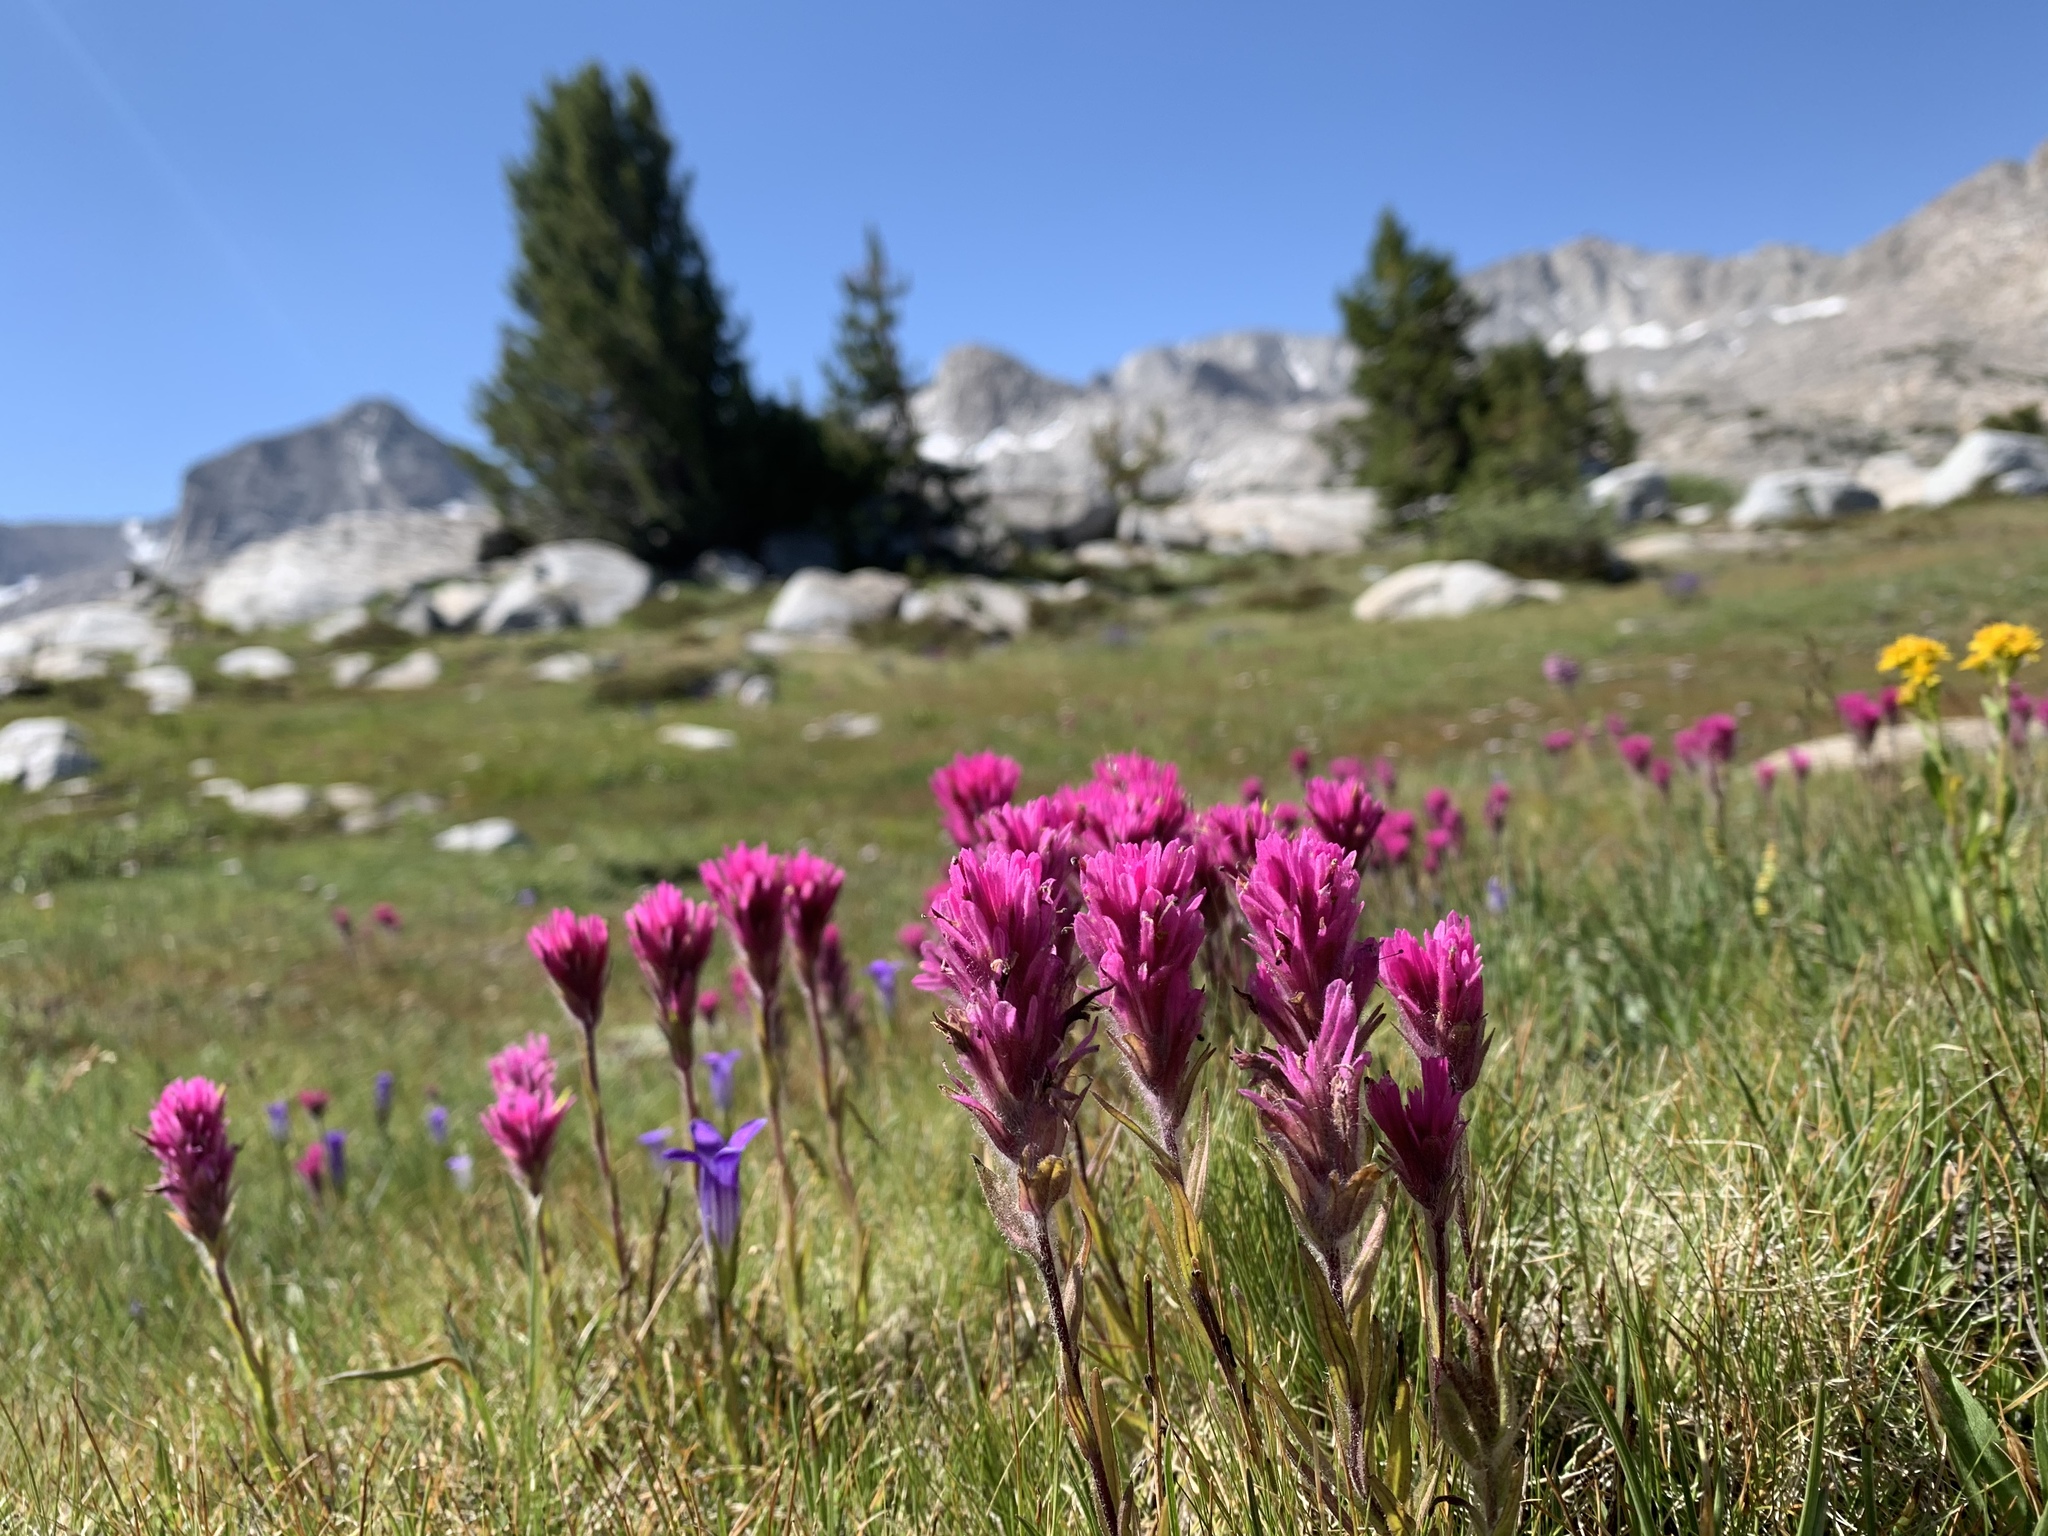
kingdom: Plantae
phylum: Tracheophyta
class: Magnoliopsida
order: Lamiales
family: Orobanchaceae
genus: Castilleja
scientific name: Castilleja lemmonii
